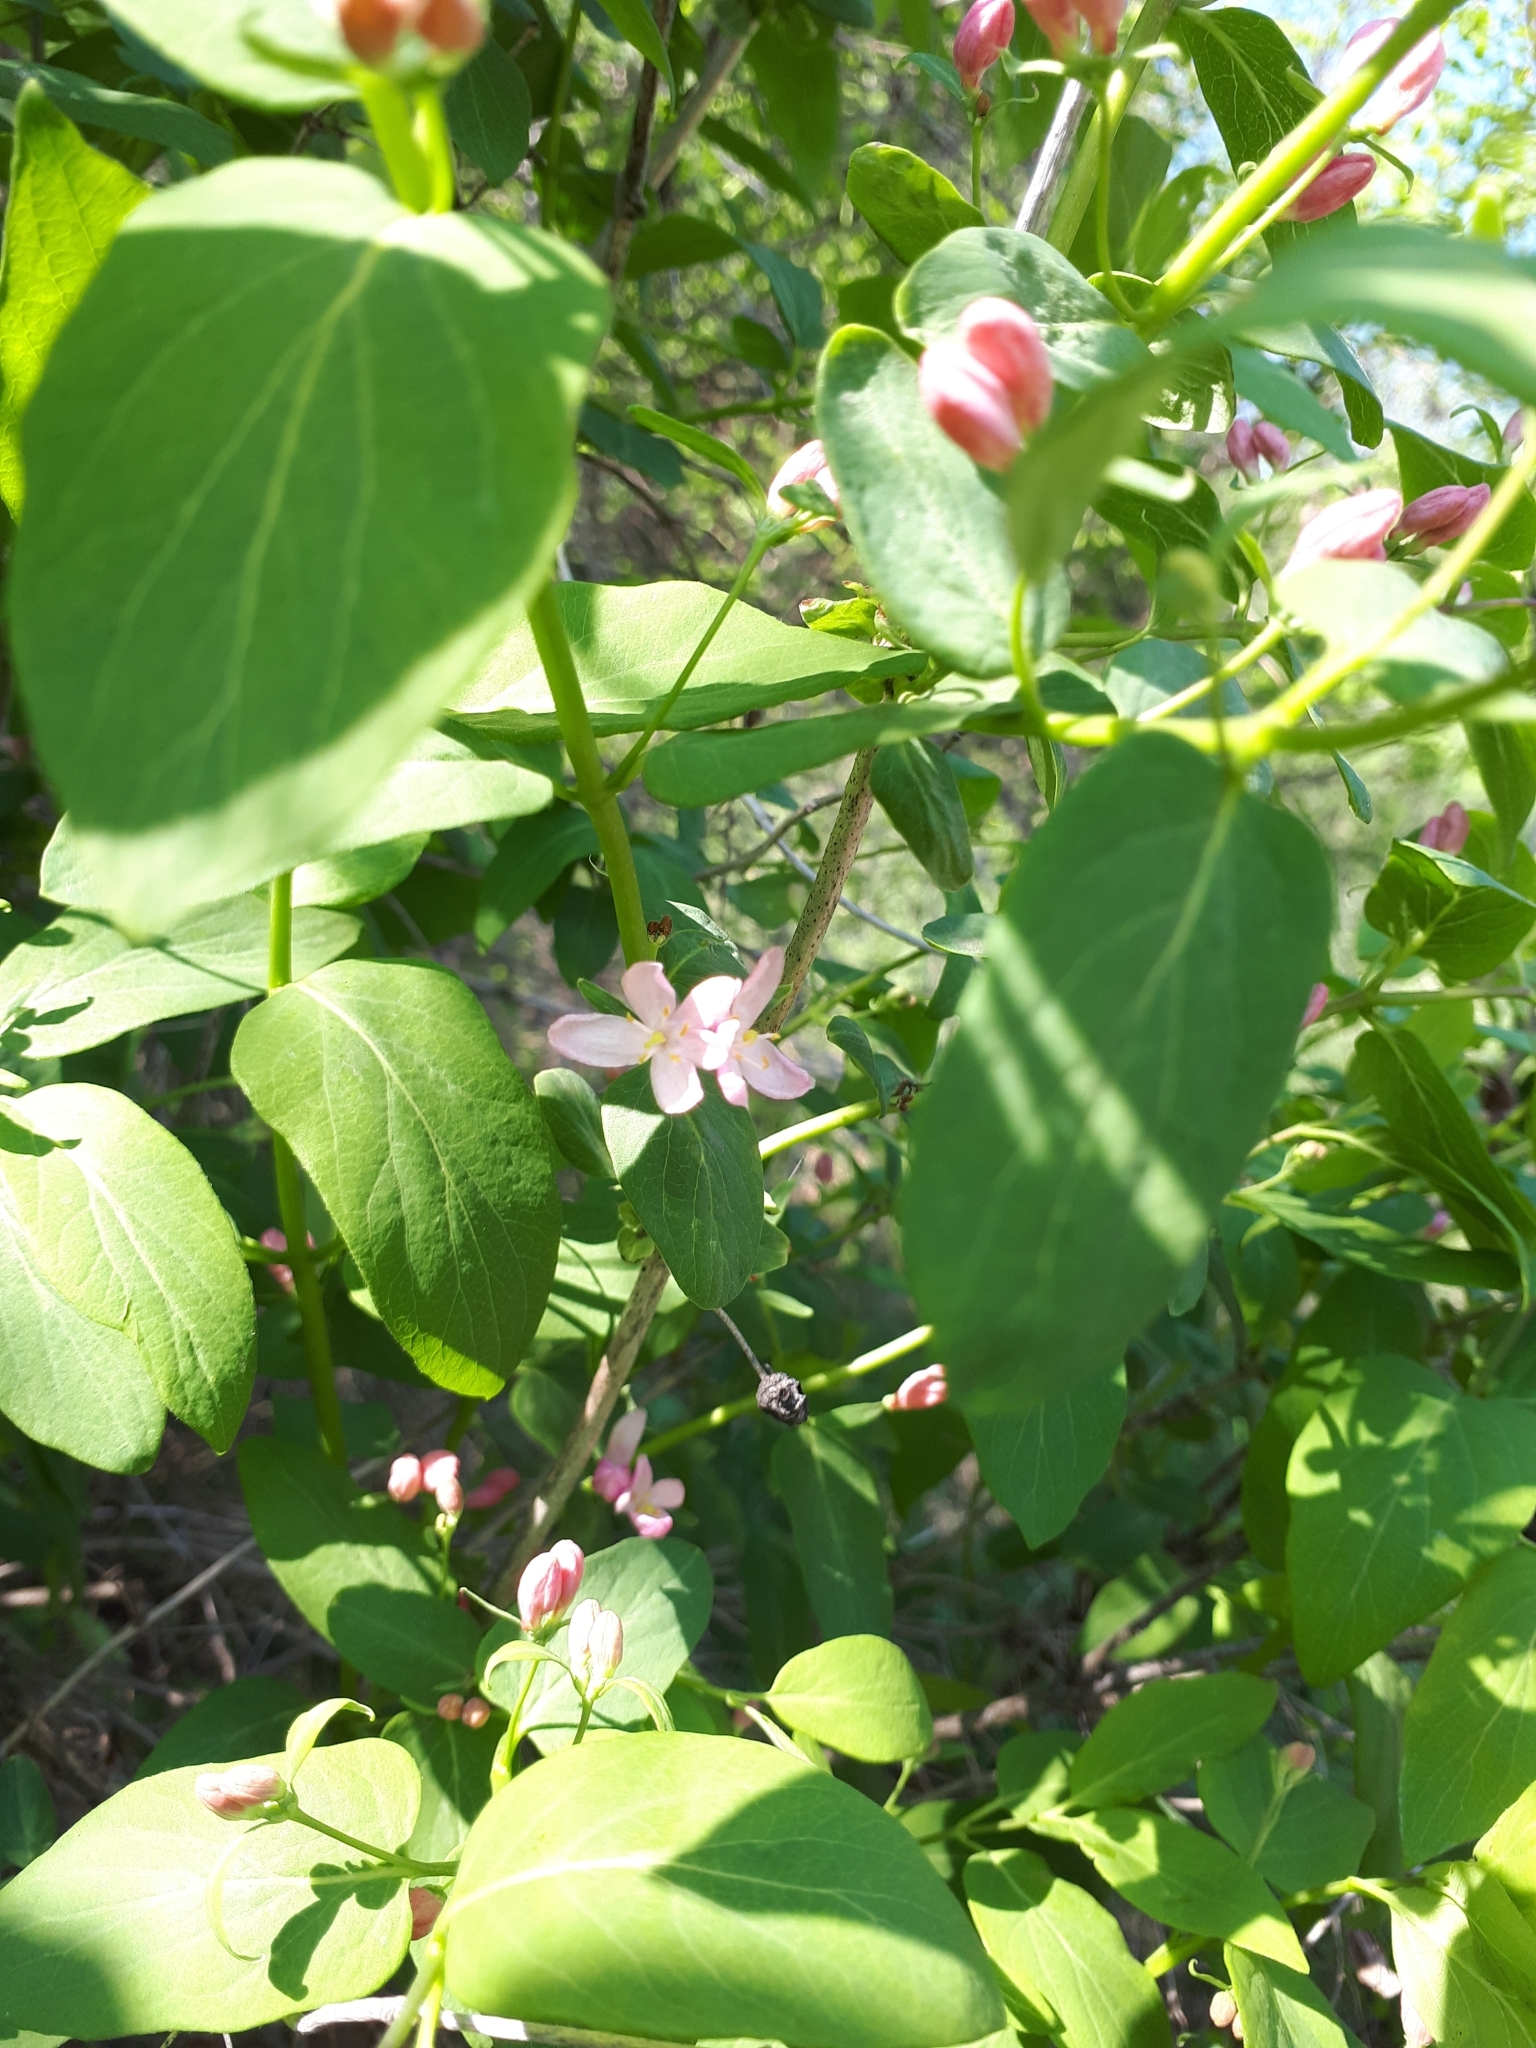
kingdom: Plantae
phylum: Tracheophyta
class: Magnoliopsida
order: Dipsacales
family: Caprifoliaceae
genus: Lonicera
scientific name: Lonicera tatarica
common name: Tatarian honeysuckle
